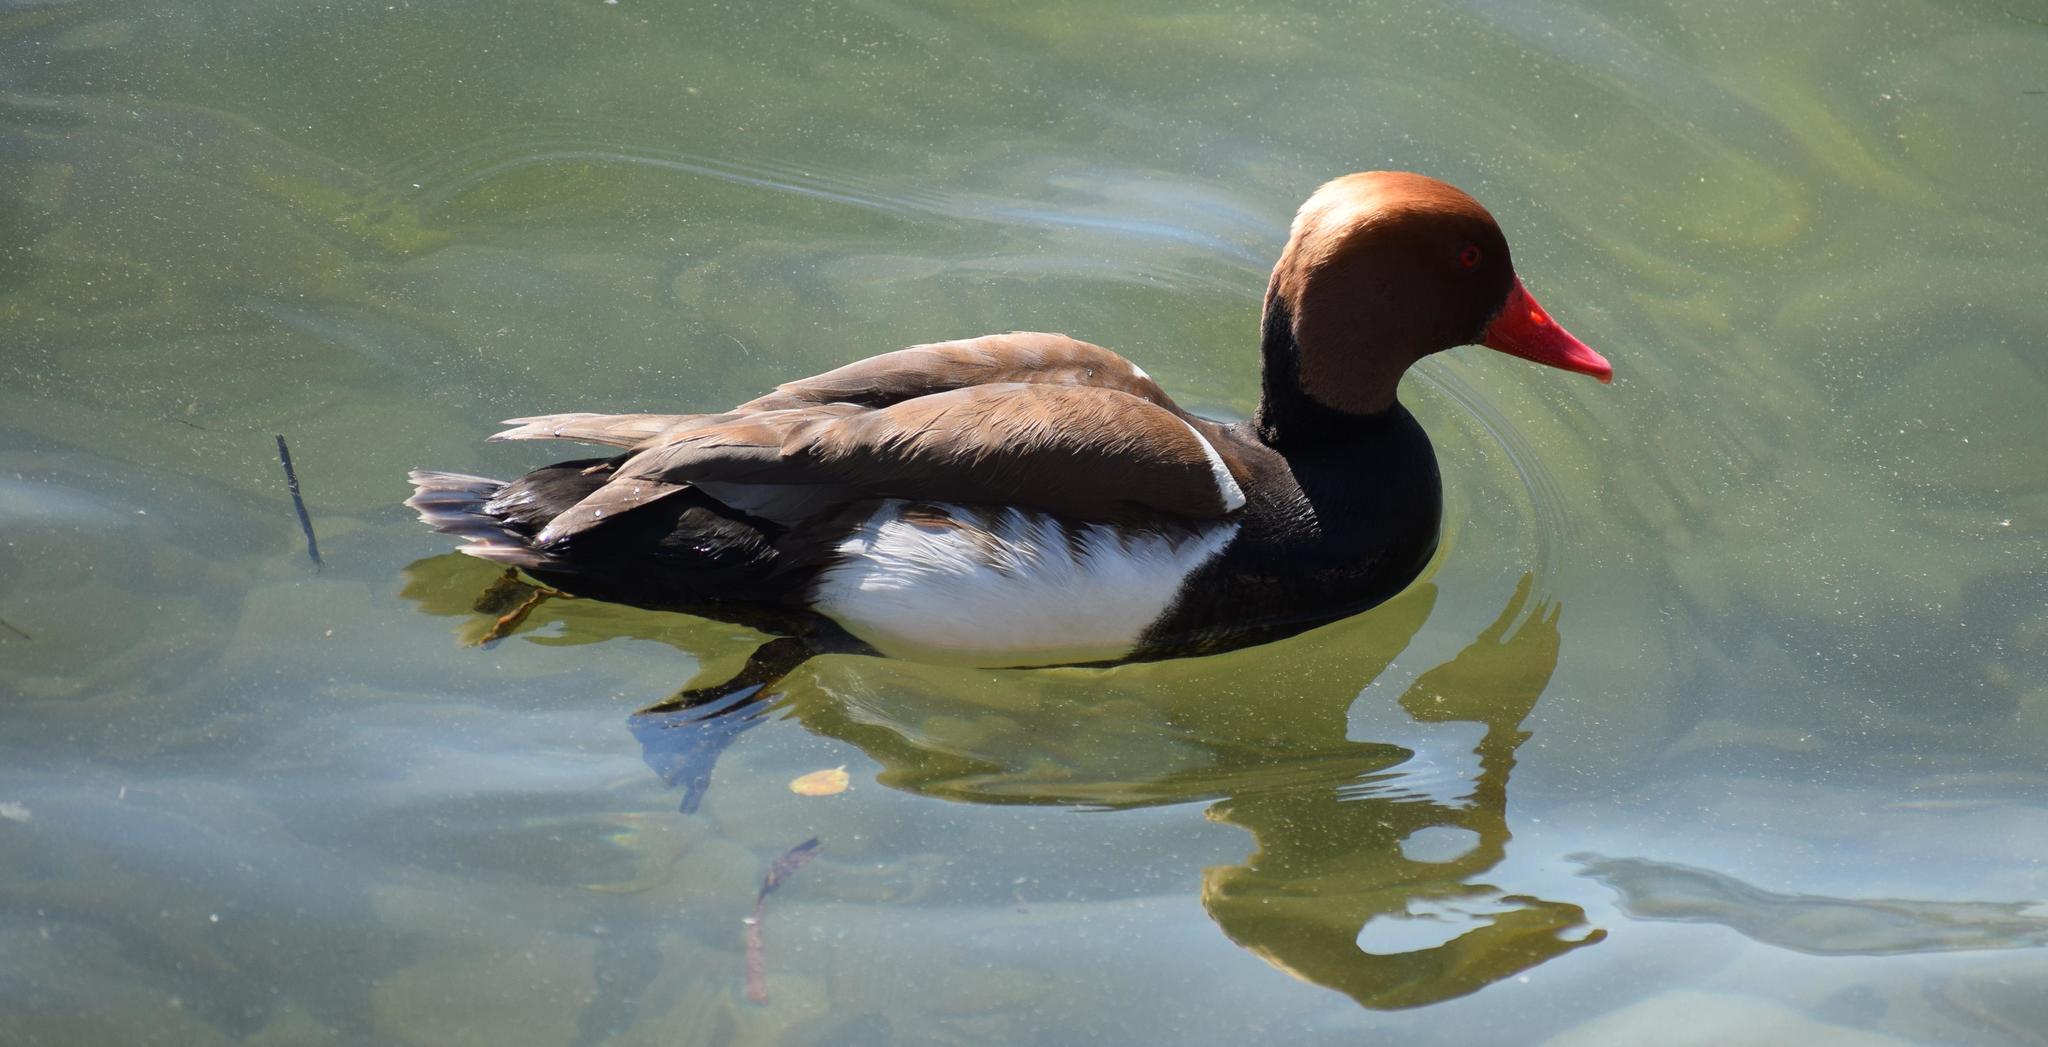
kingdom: Animalia
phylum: Chordata
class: Aves
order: Anseriformes
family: Anatidae
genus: Netta
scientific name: Netta rufina
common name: Red-crested pochard
